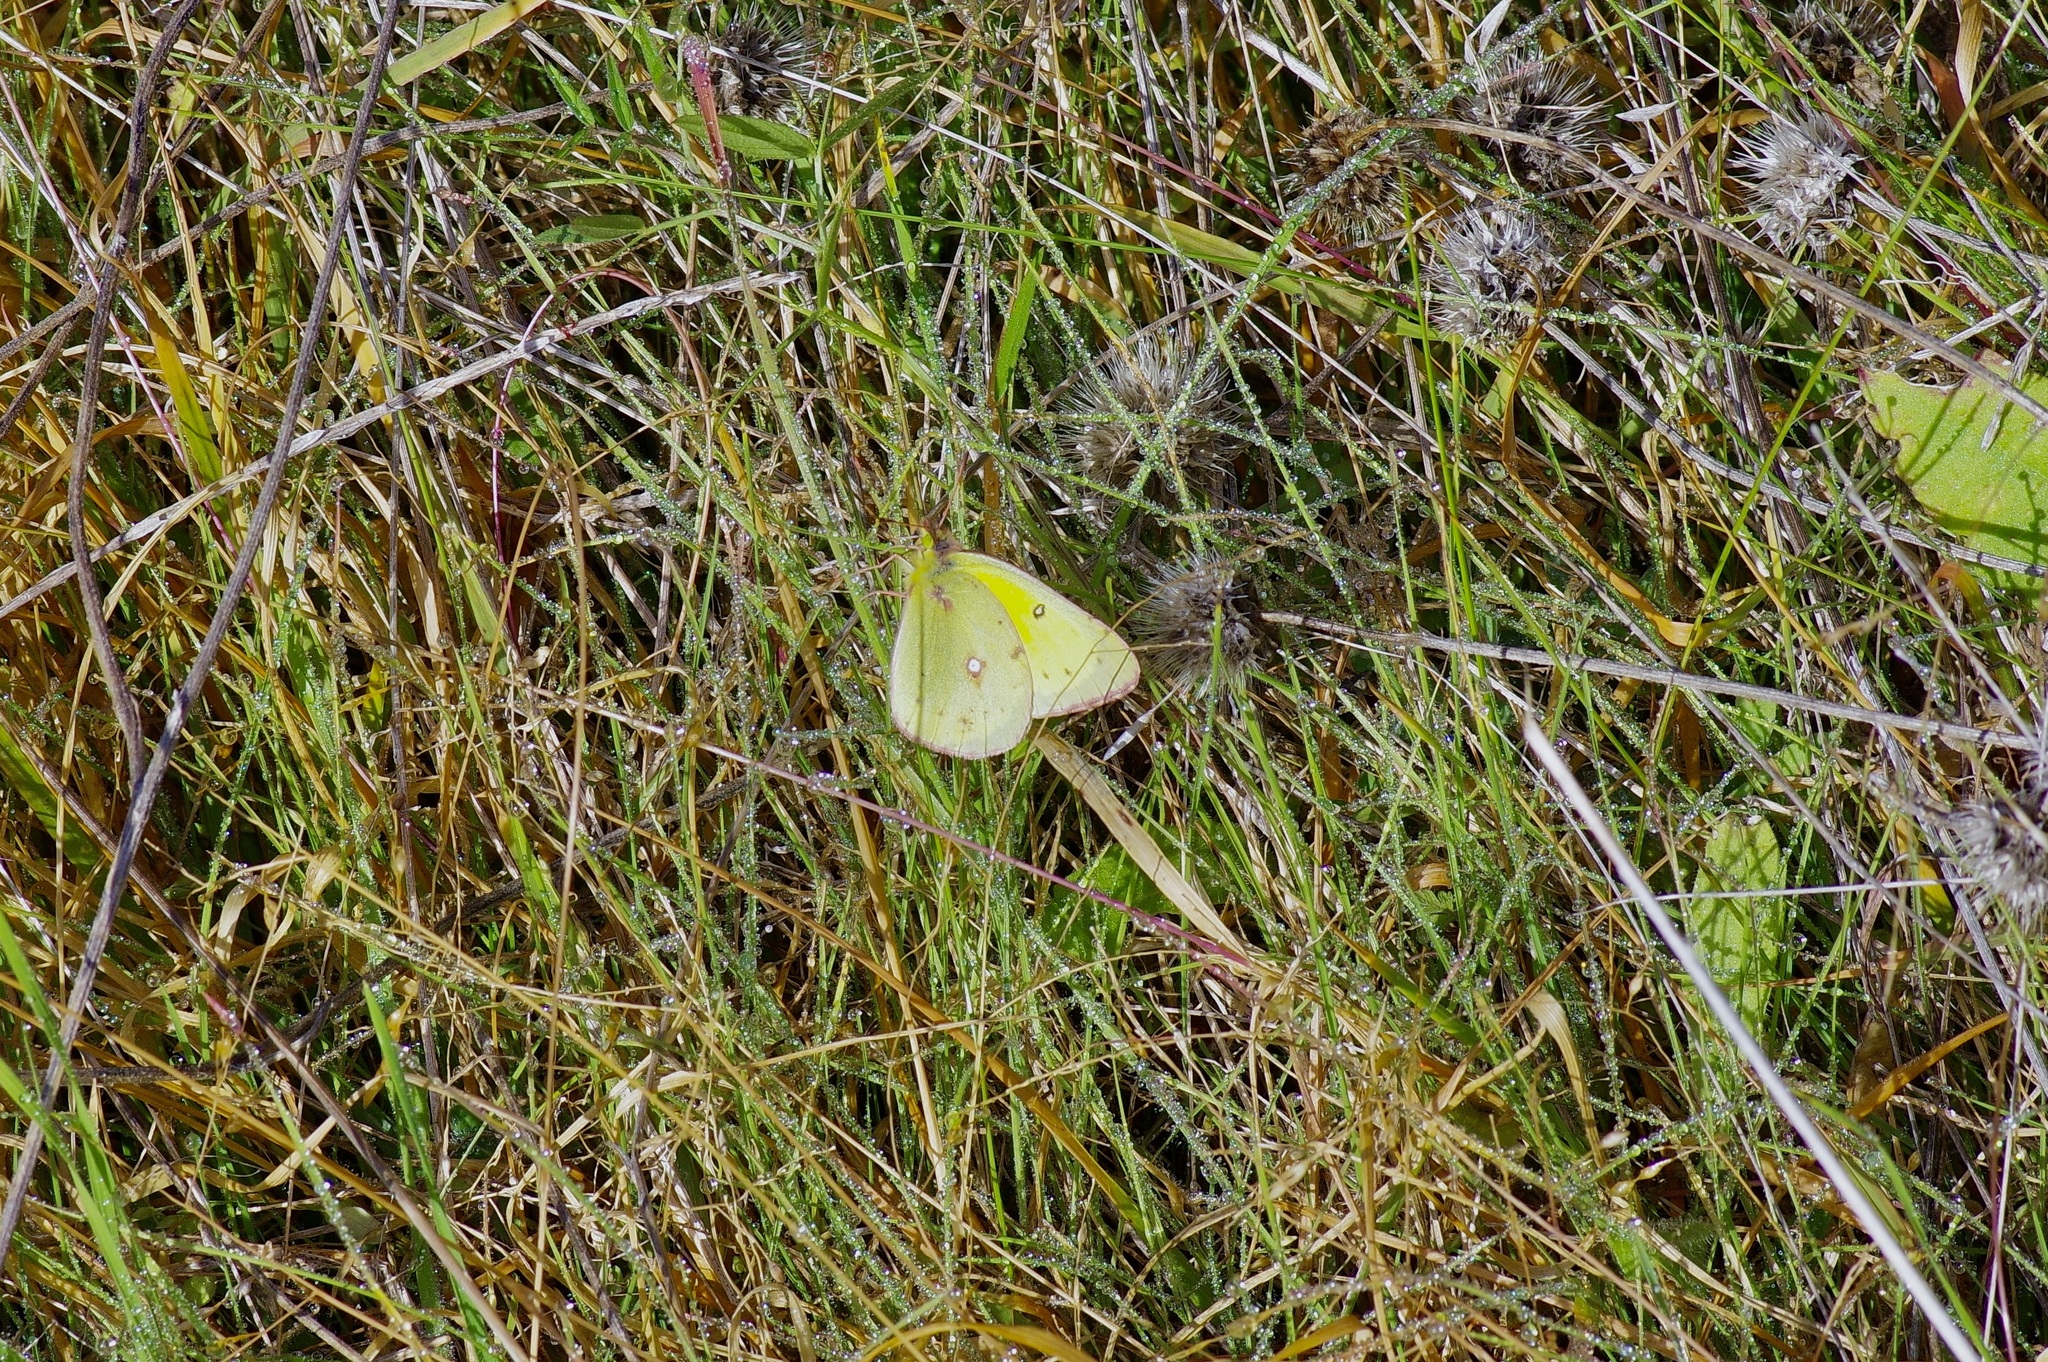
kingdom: Animalia
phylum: Arthropoda
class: Insecta
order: Lepidoptera
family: Pieridae
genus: Colias
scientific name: Colias eurytheme
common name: Alfalfa butterfly
